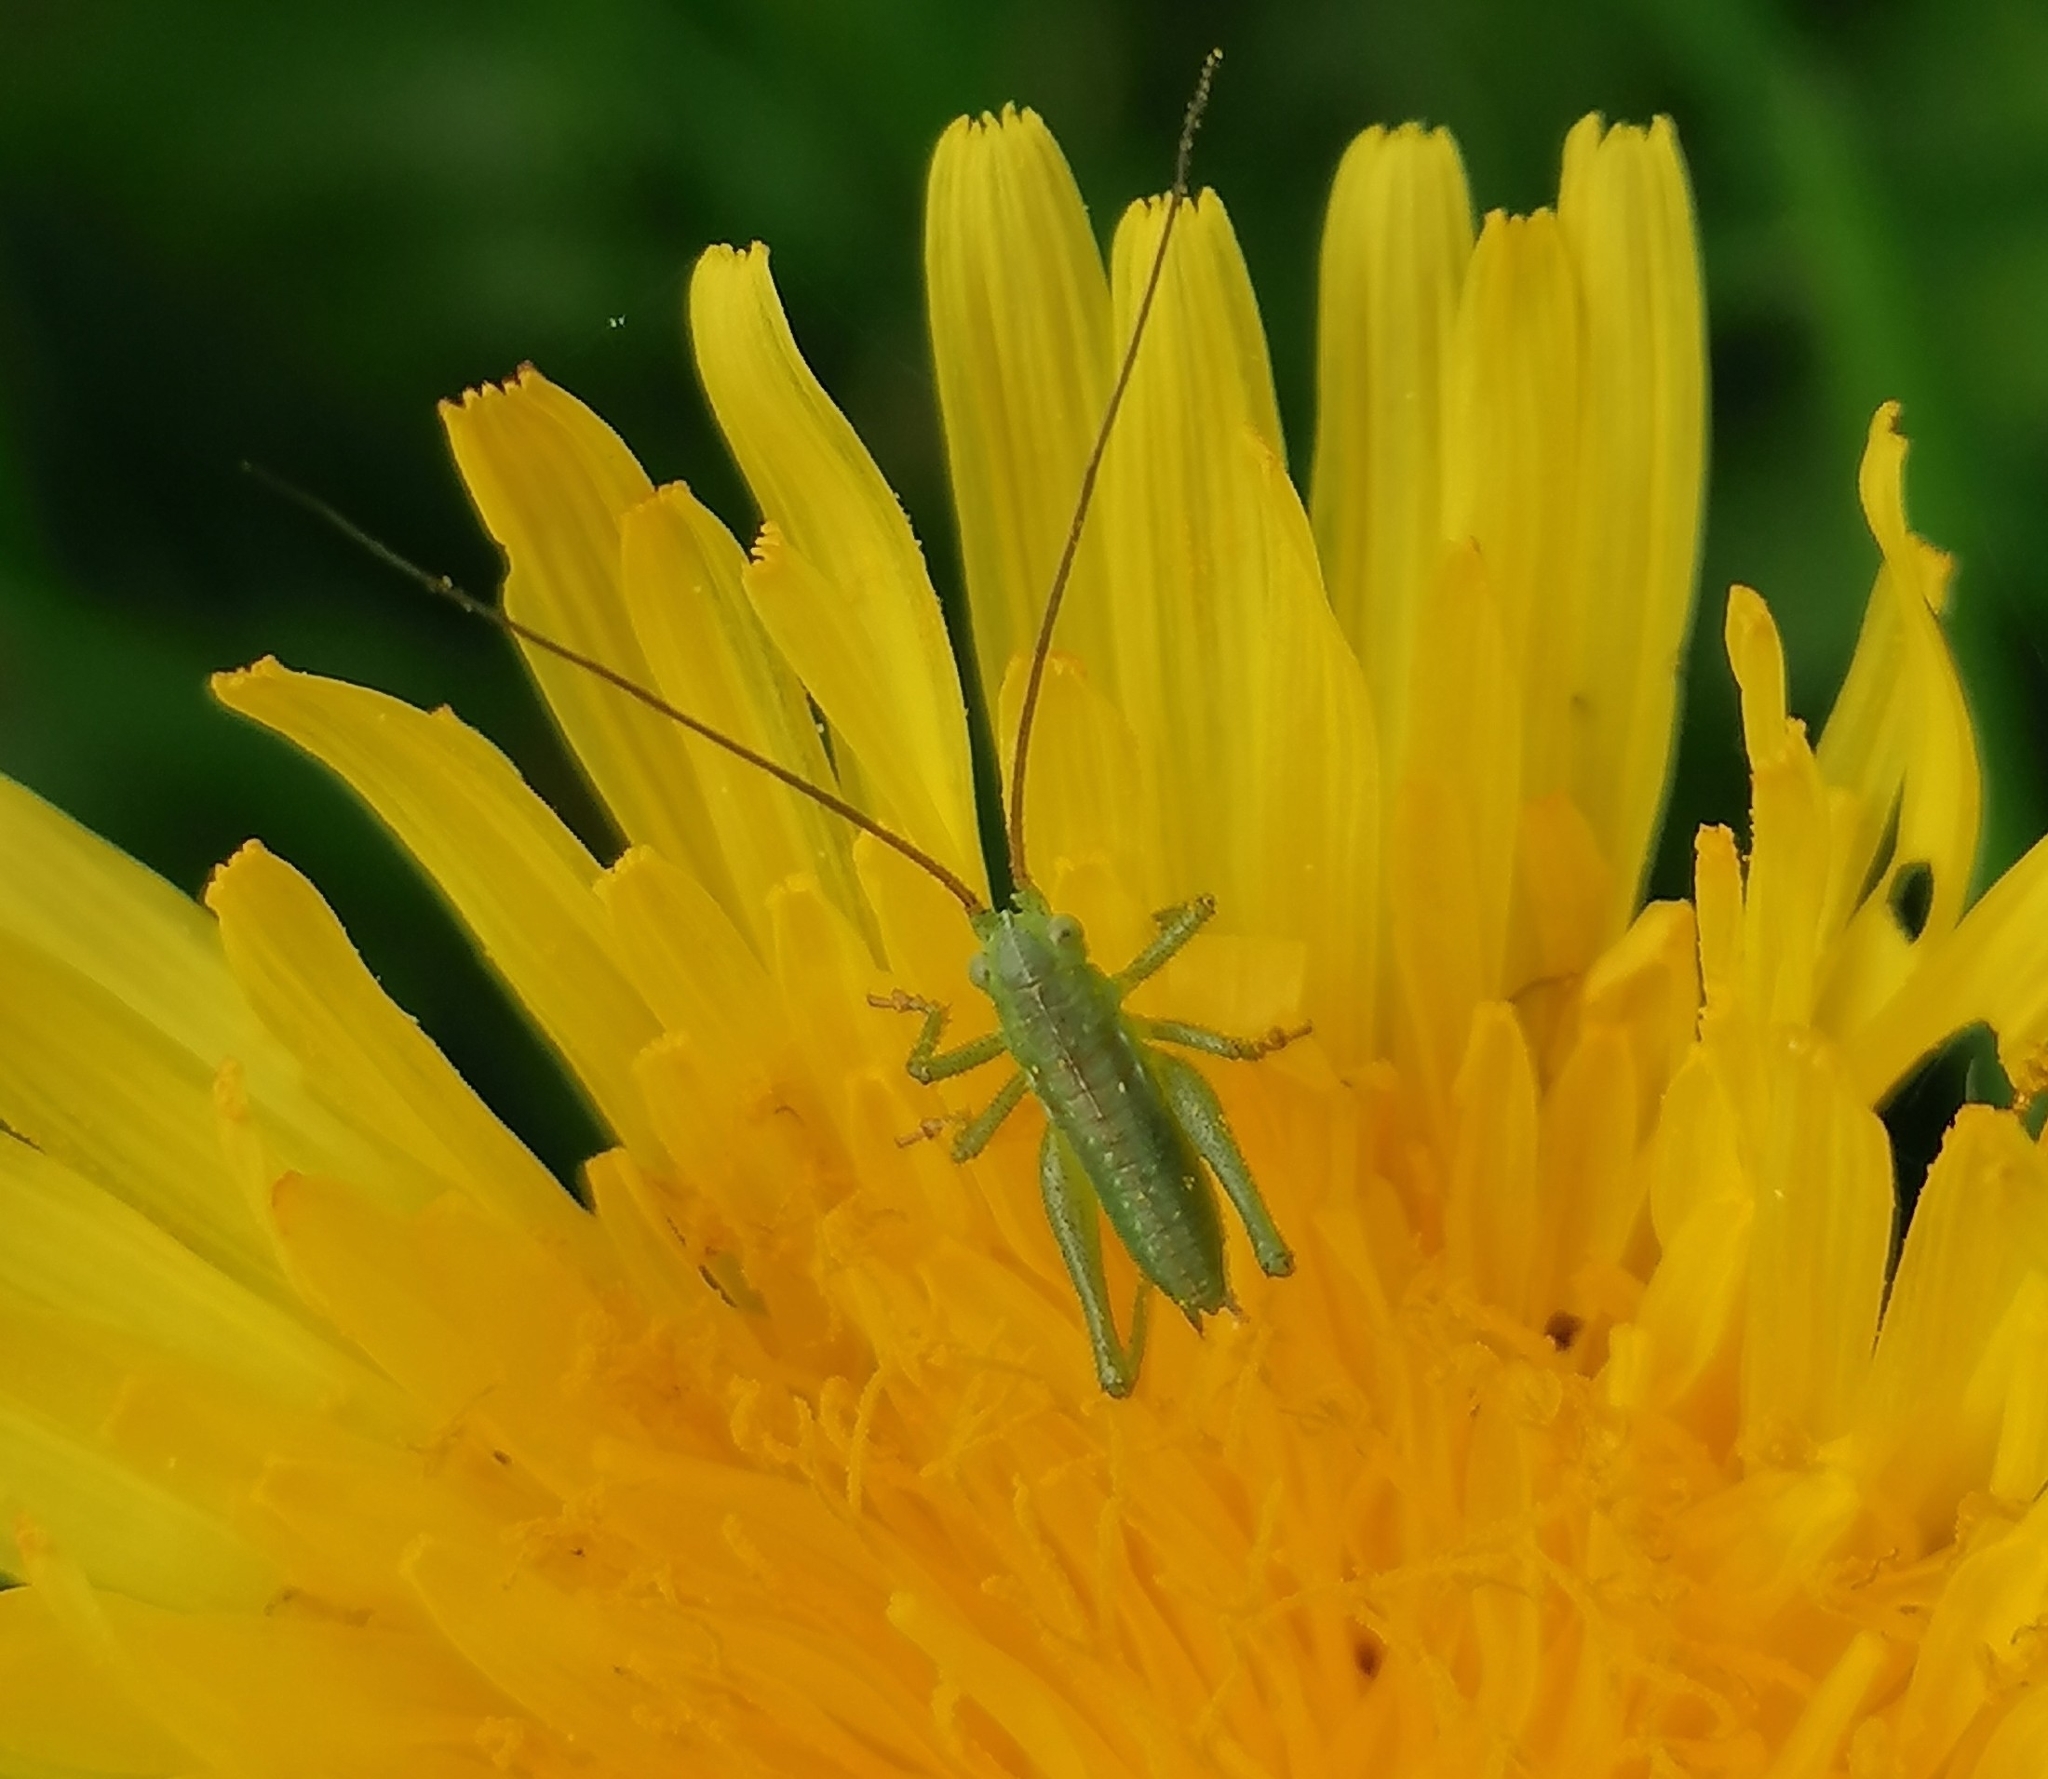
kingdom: Animalia
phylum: Arthropoda
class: Insecta
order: Orthoptera
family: Tettigoniidae
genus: Tettigonia
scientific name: Tettigonia viridissima
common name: Great green bush-cricket
